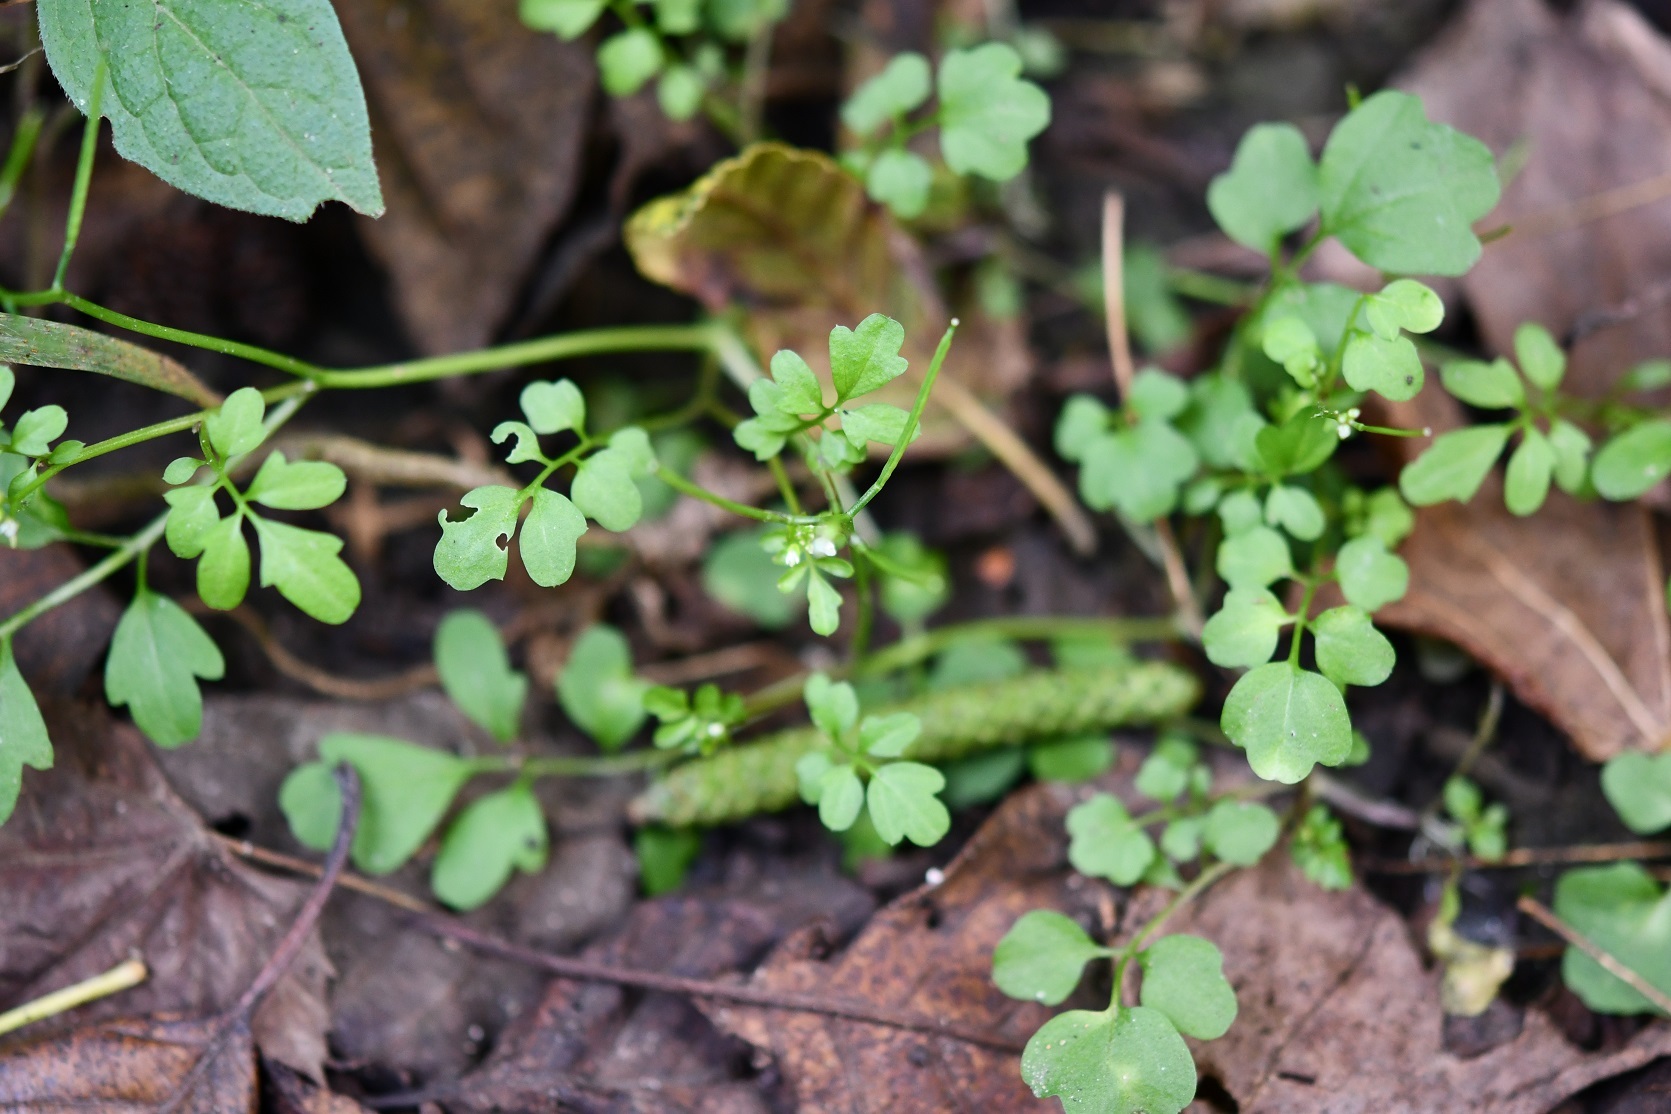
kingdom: Plantae
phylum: Tracheophyta
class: Magnoliopsida
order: Brassicales
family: Brassicaceae
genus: Cardamine
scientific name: Cardamine occulta
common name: Asian wavy bittercress
